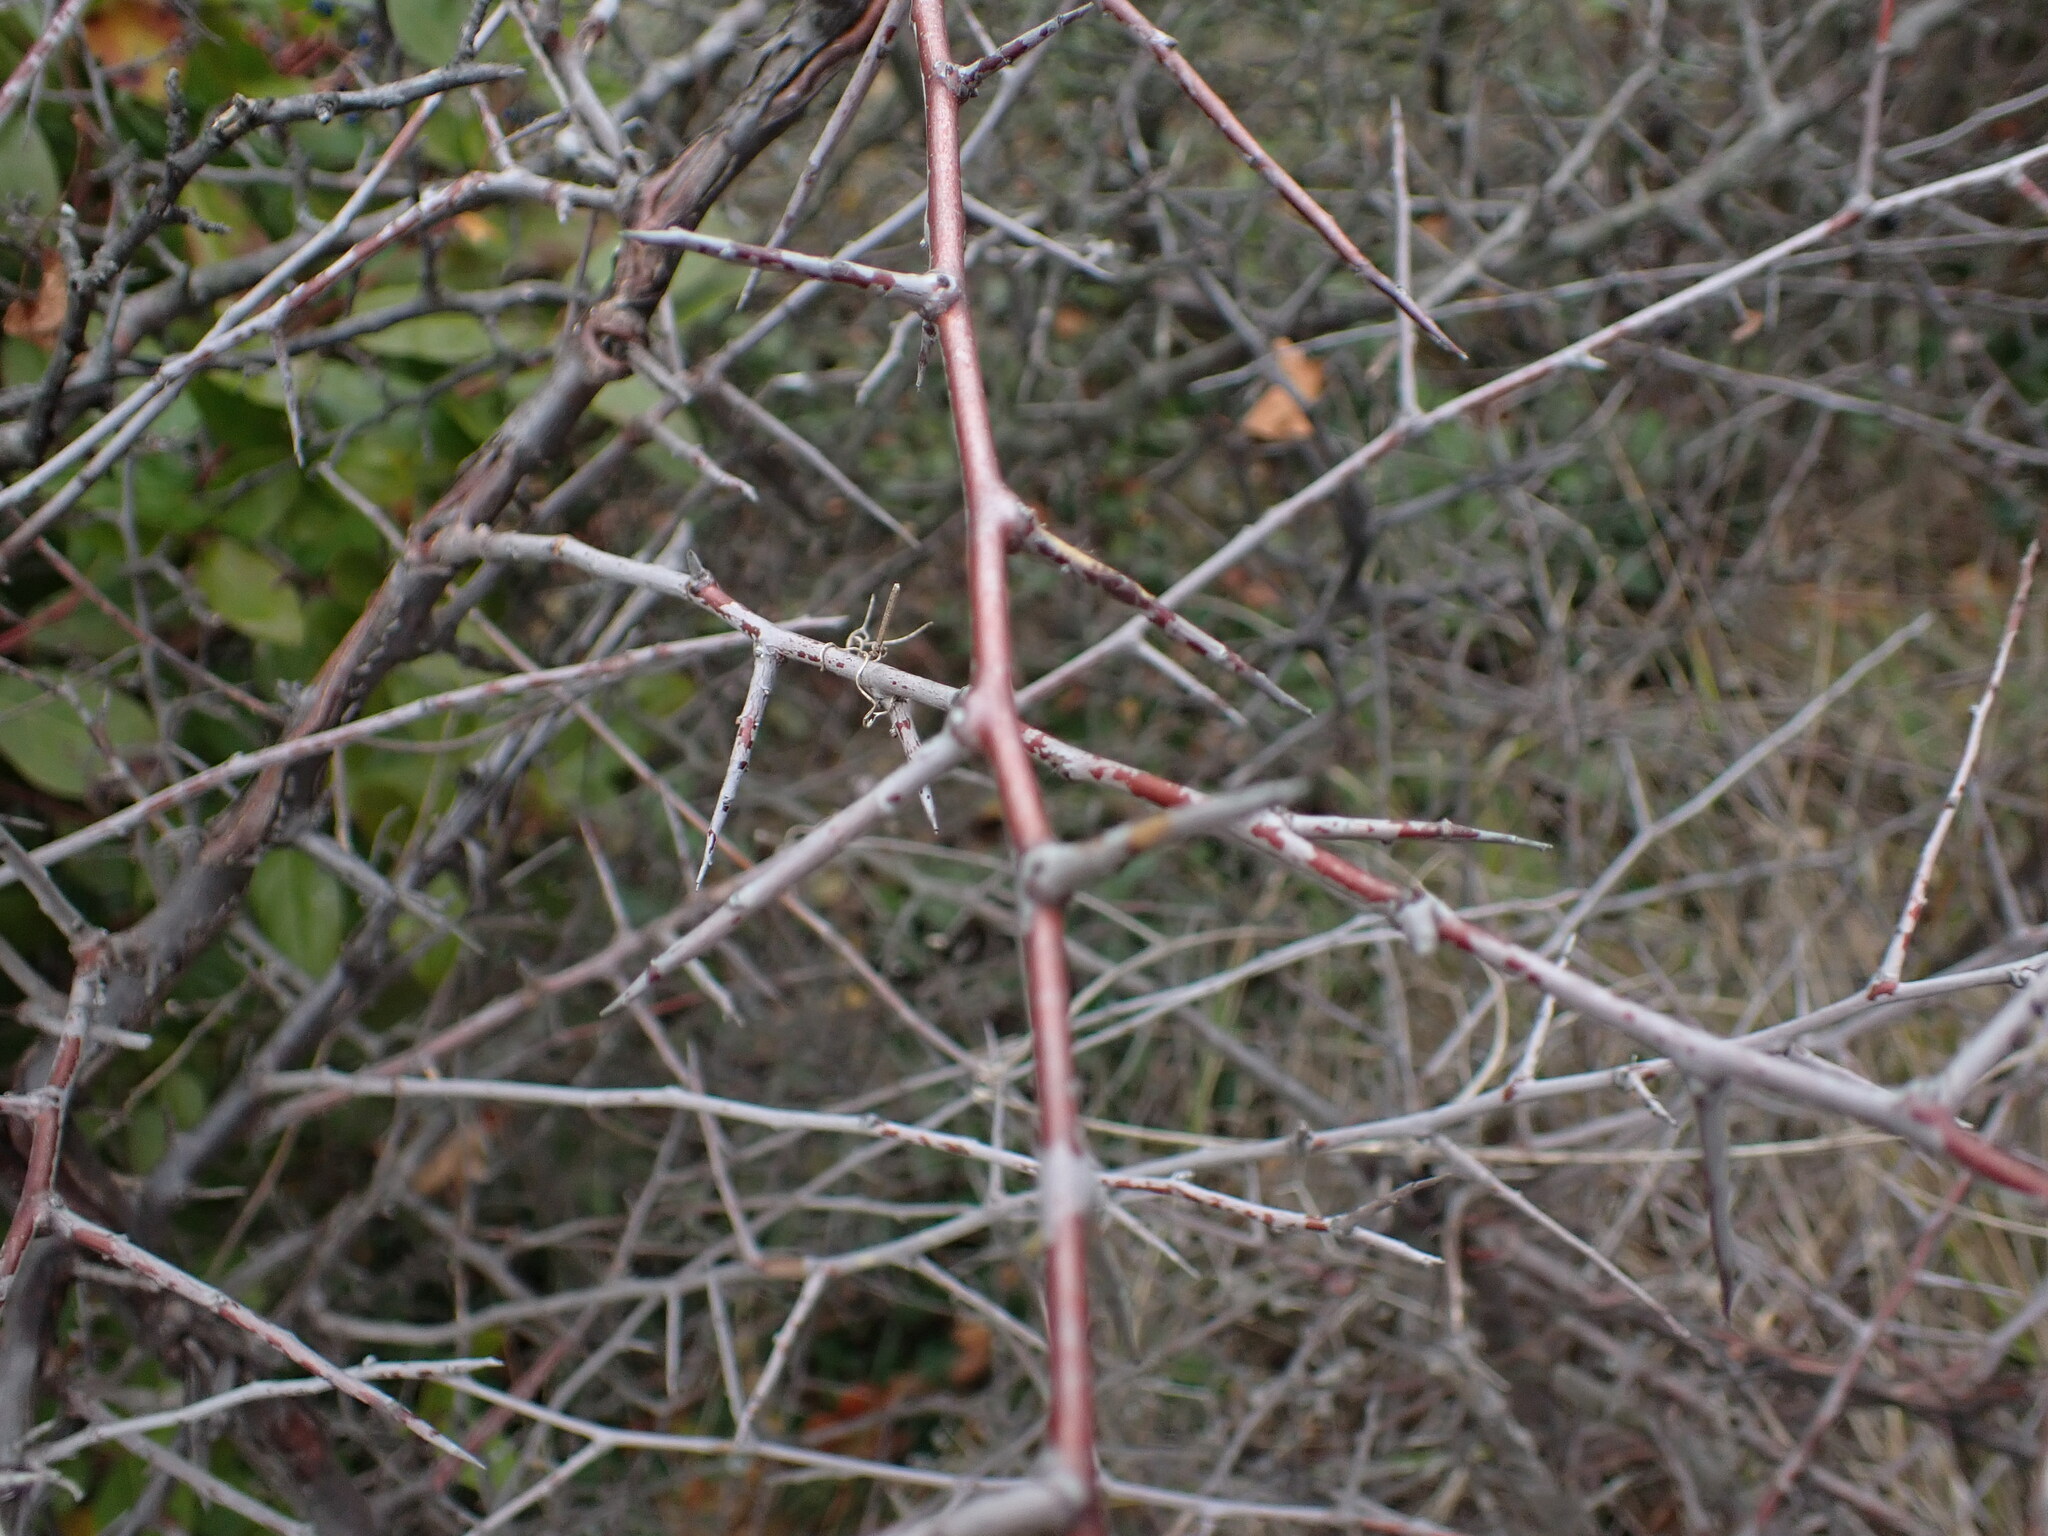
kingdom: Plantae
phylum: Tracheophyta
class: Magnoliopsida
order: Rosales
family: Rosaceae
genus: Prunus
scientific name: Prunus spinosa
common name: Blackthorn
